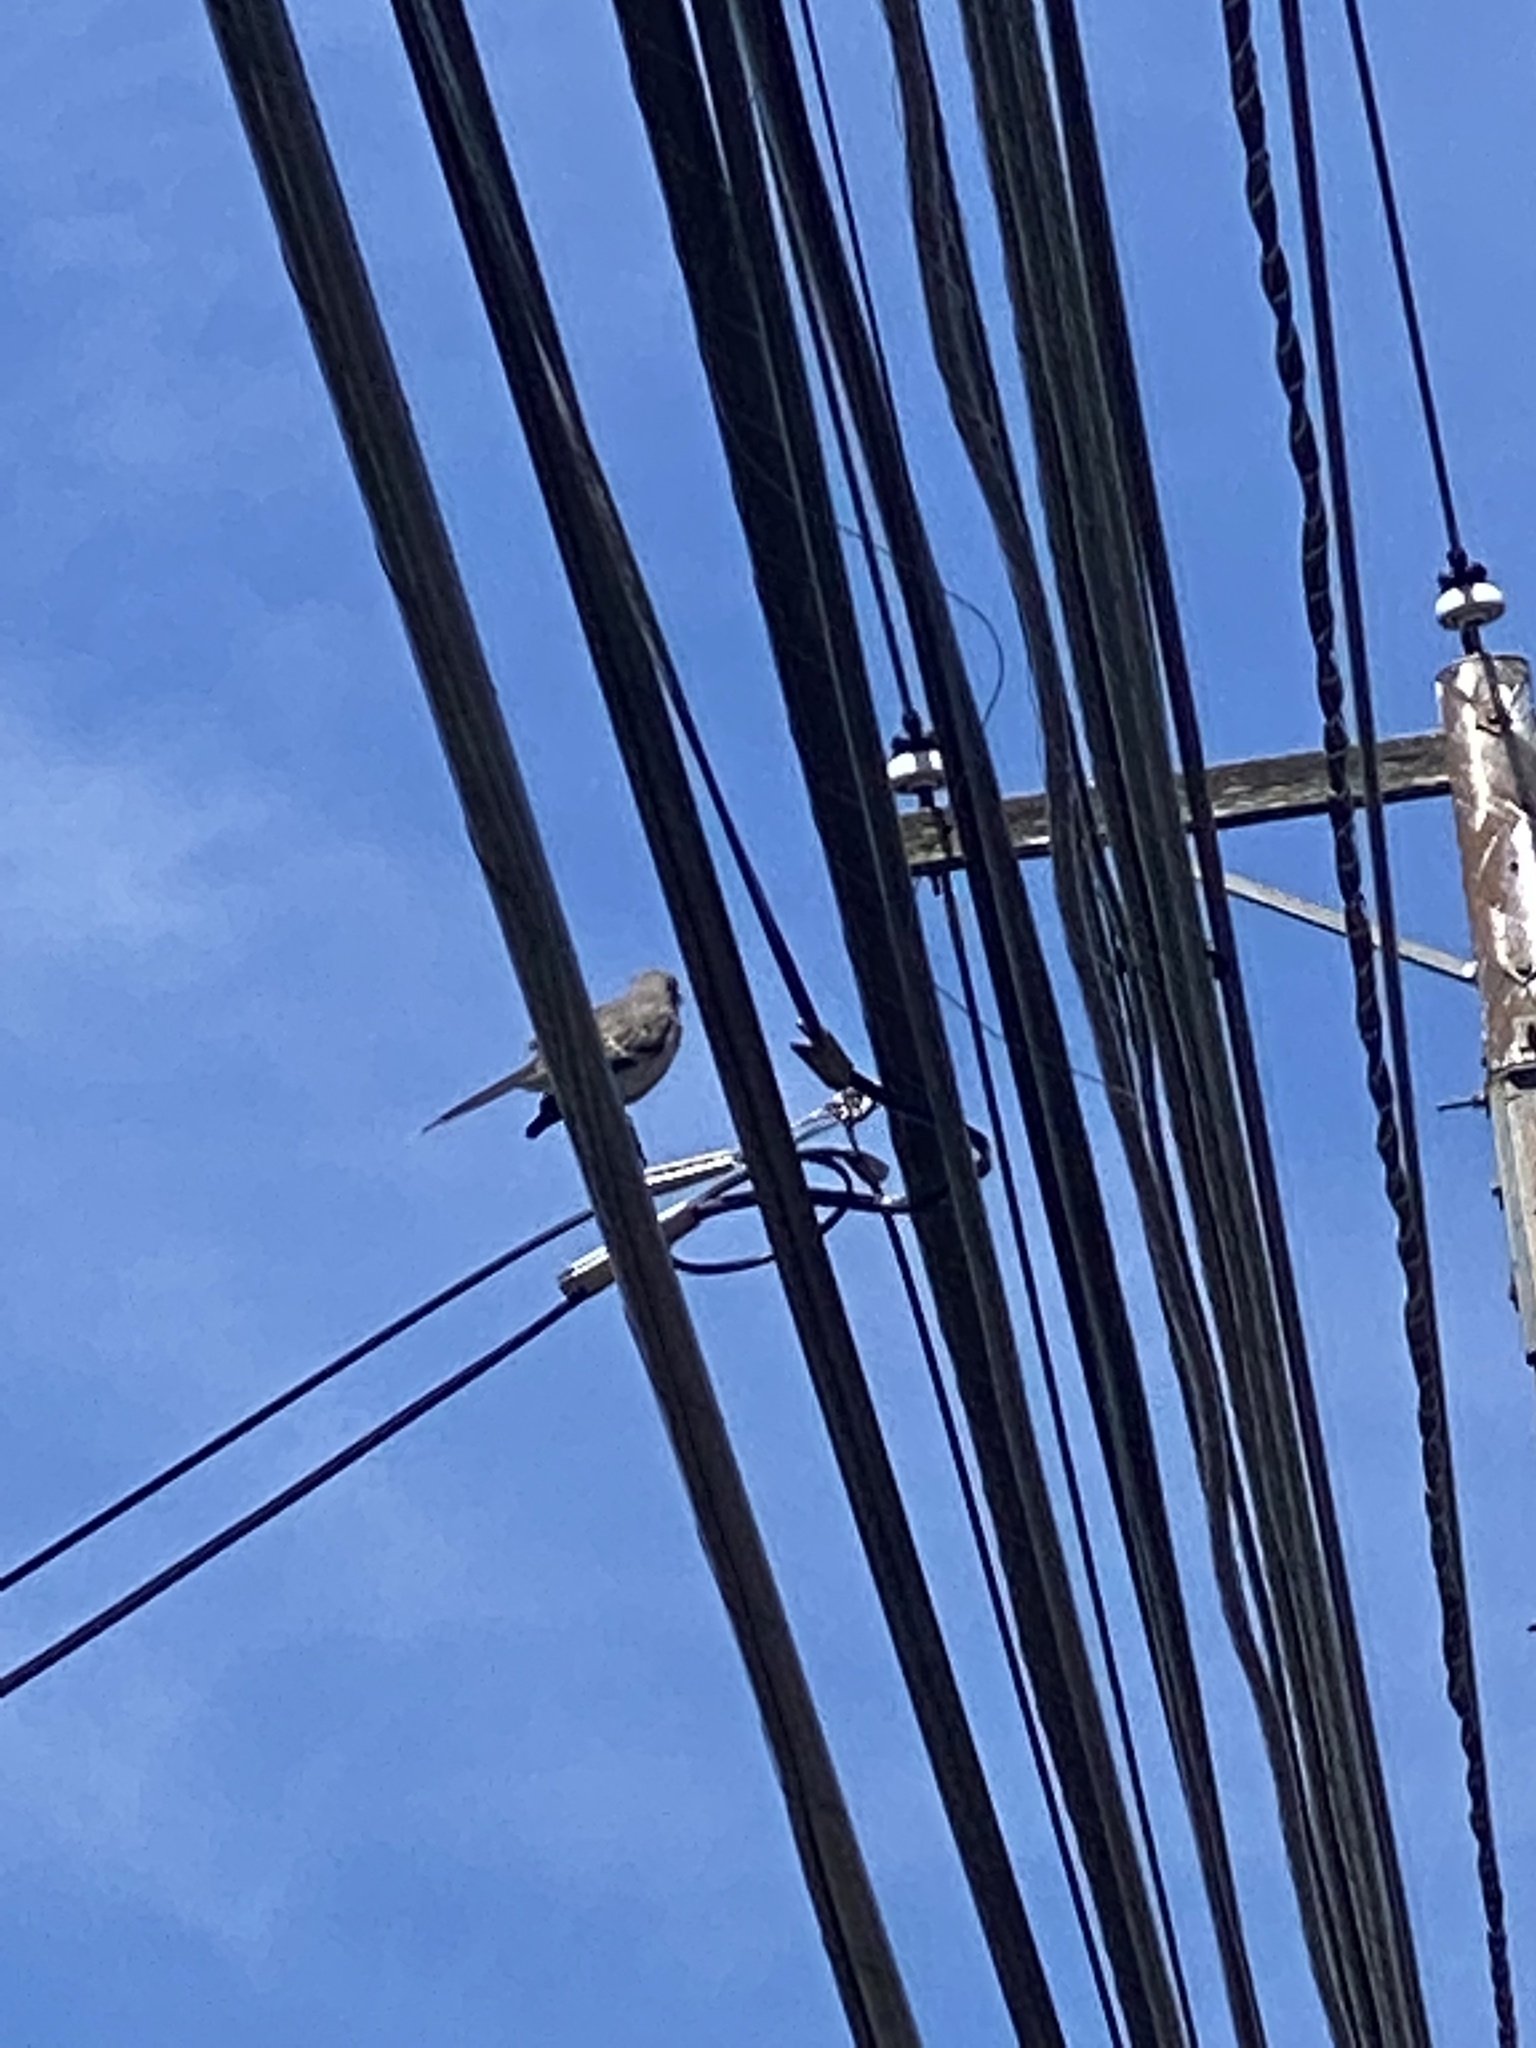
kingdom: Animalia
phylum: Chordata
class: Aves
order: Passeriformes
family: Mimidae
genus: Mimus
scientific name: Mimus polyglottos
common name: Northern mockingbird
